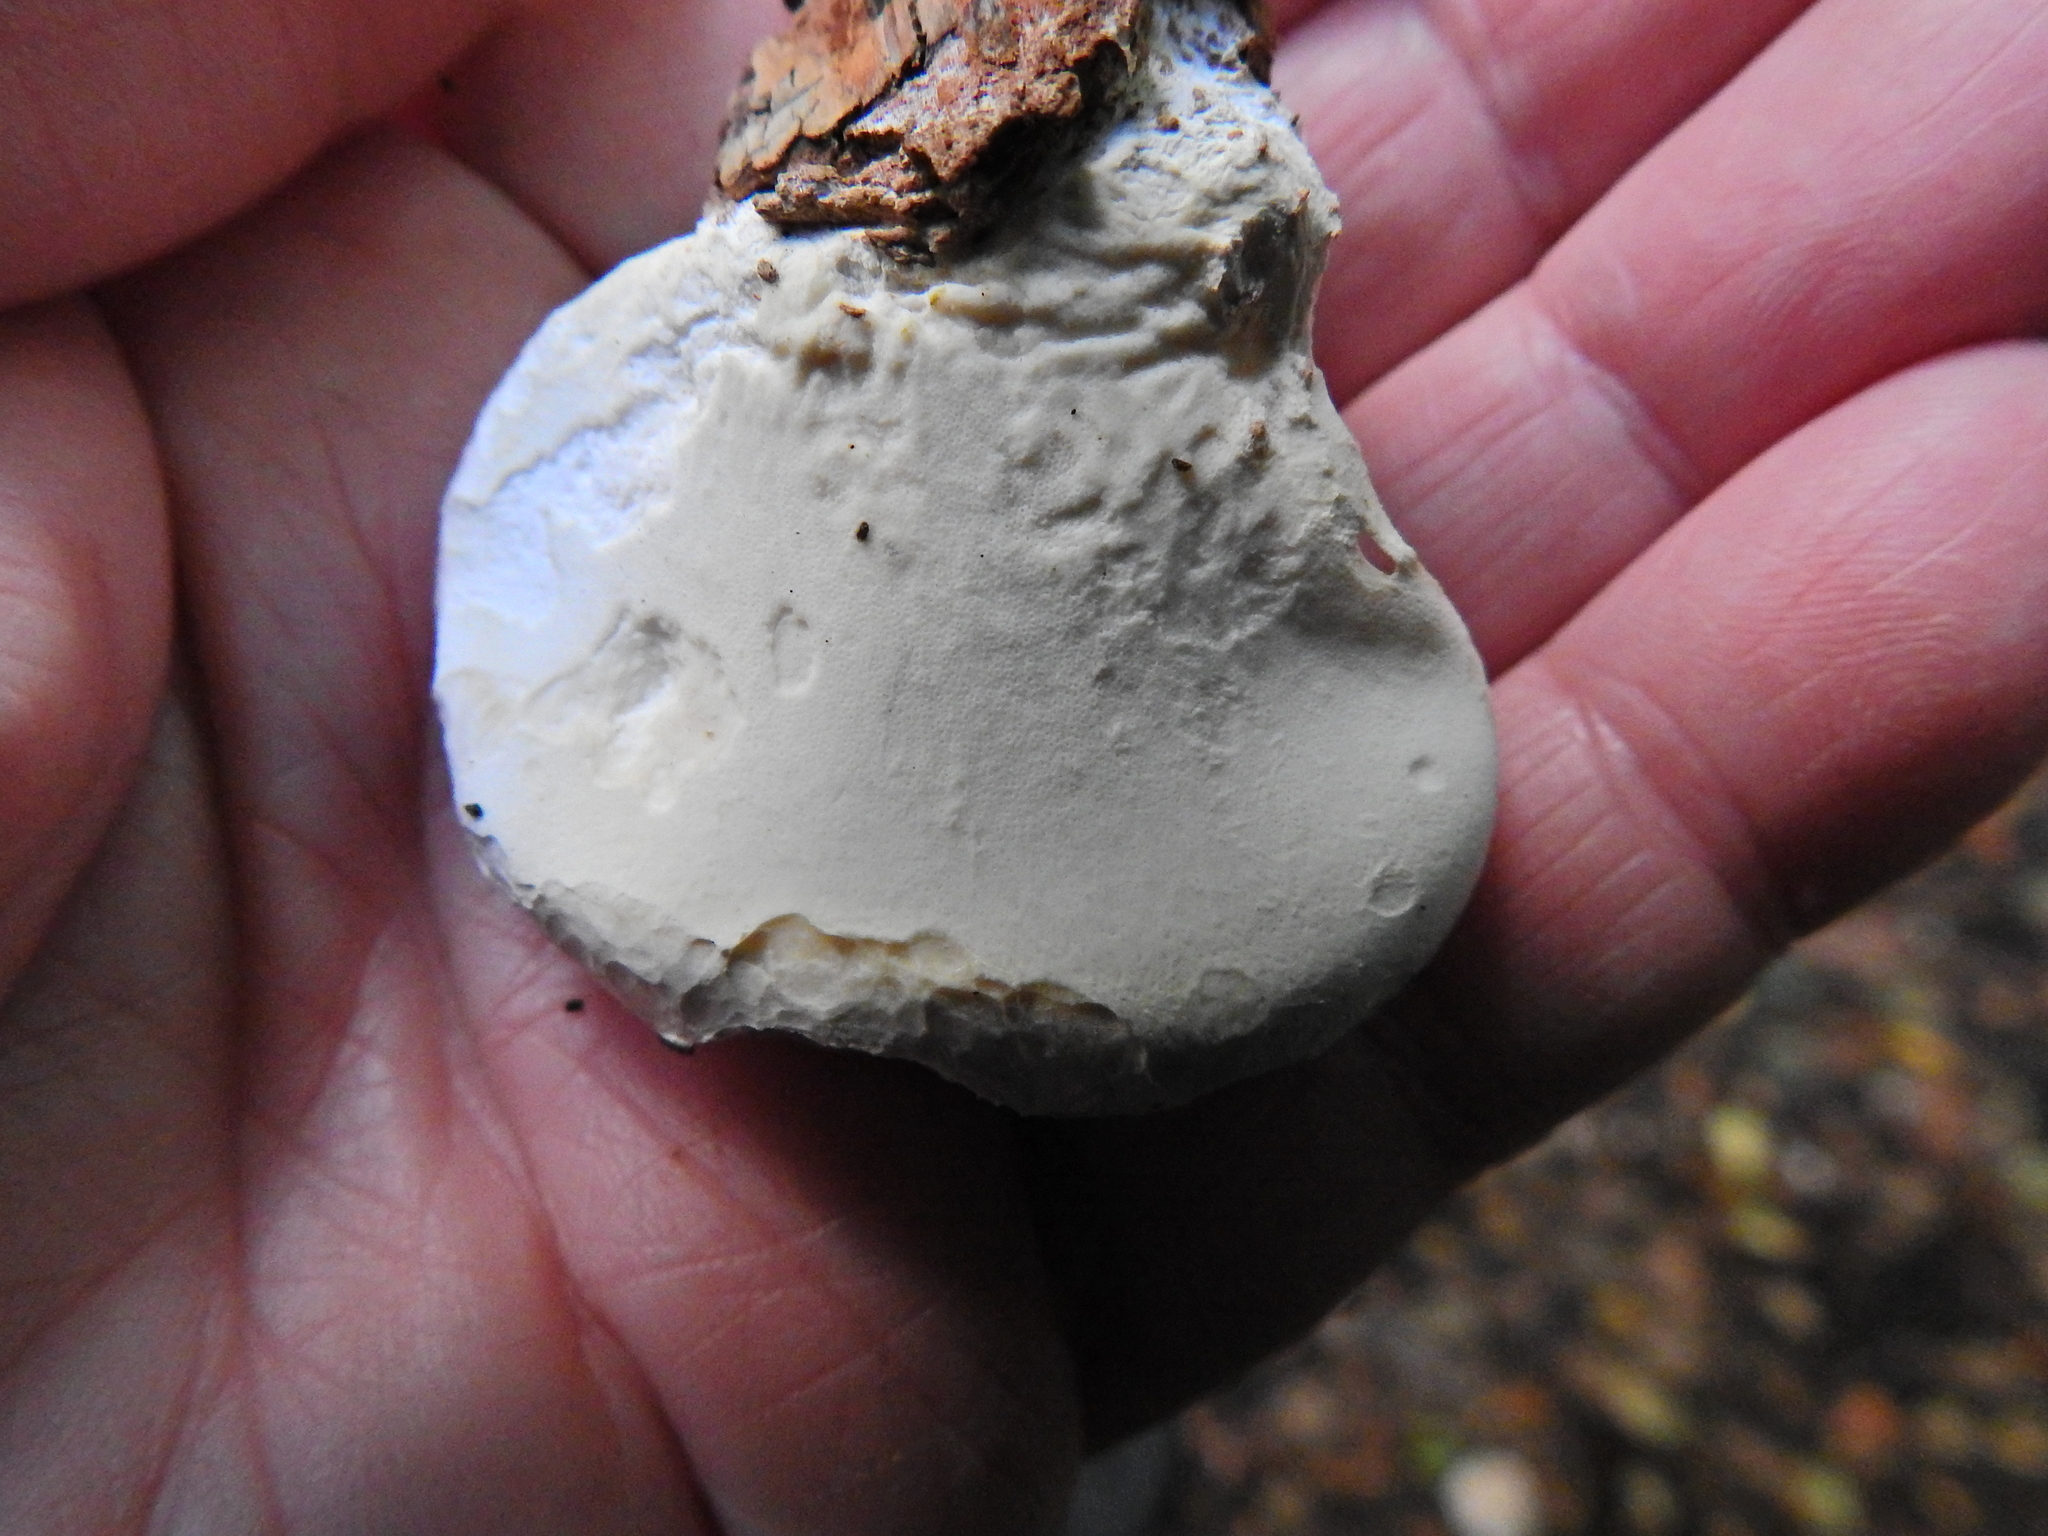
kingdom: Fungi
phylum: Basidiomycota
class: Agaricomycetes
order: Polyporales
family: Fomitopsidaceae
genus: Fomitopsis
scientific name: Fomitopsis betulina
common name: Birch polypore
